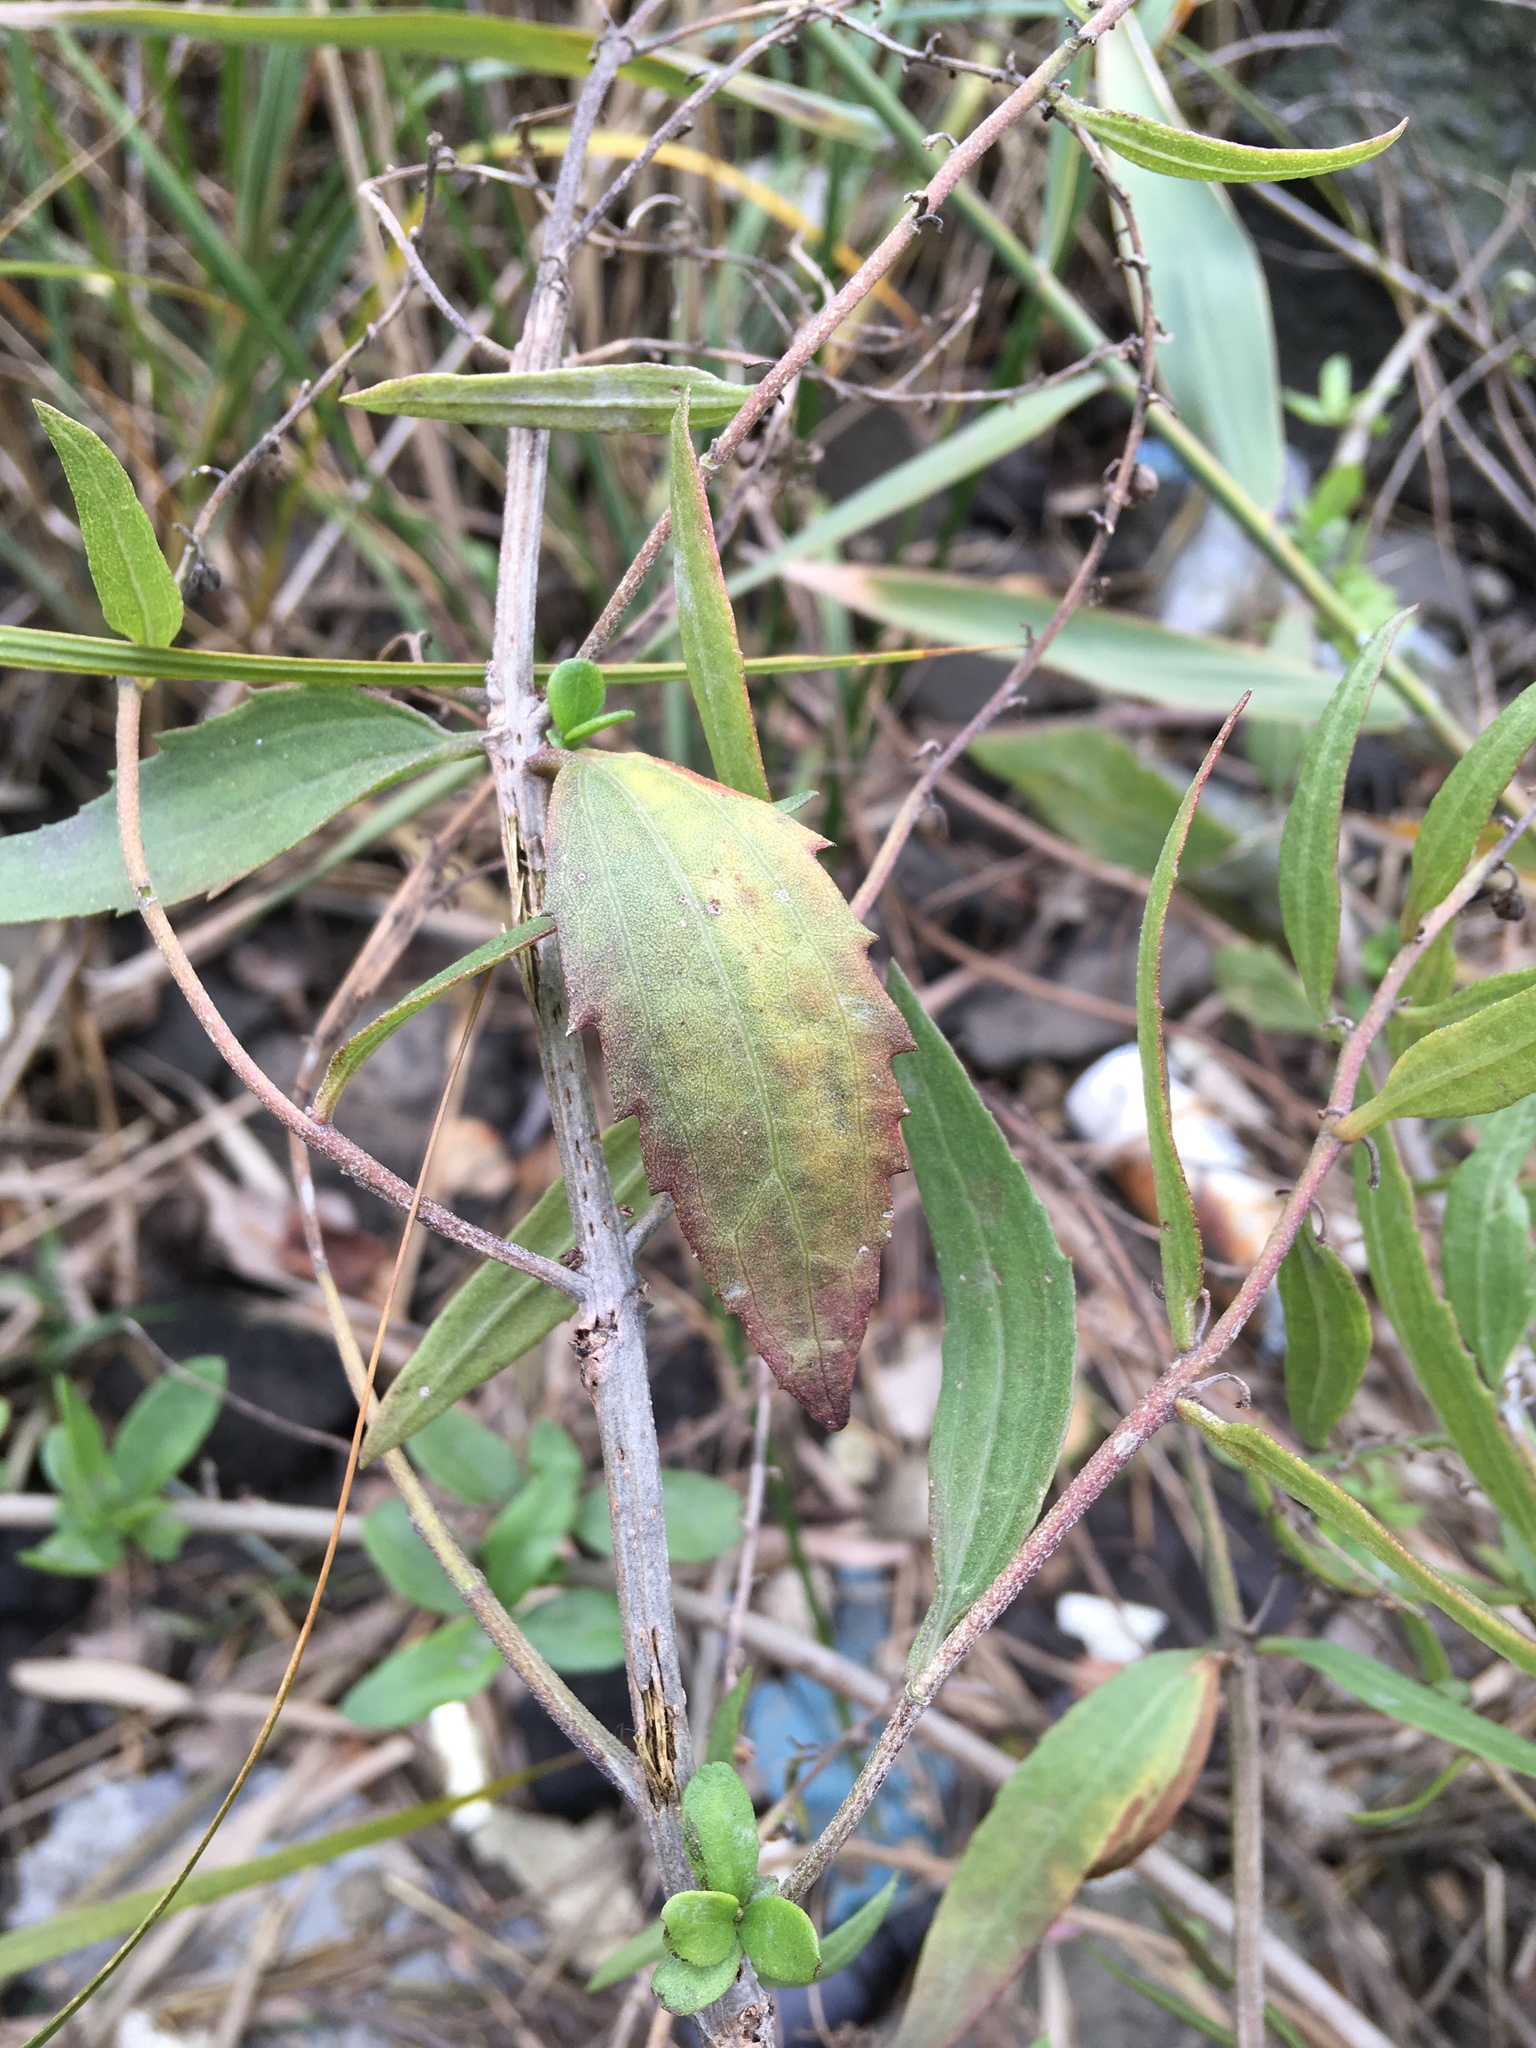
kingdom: Plantae
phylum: Tracheophyta
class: Magnoliopsida
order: Asterales
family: Asteraceae
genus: Iva
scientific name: Iva frutescens
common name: Big-leaved marsh-elder
